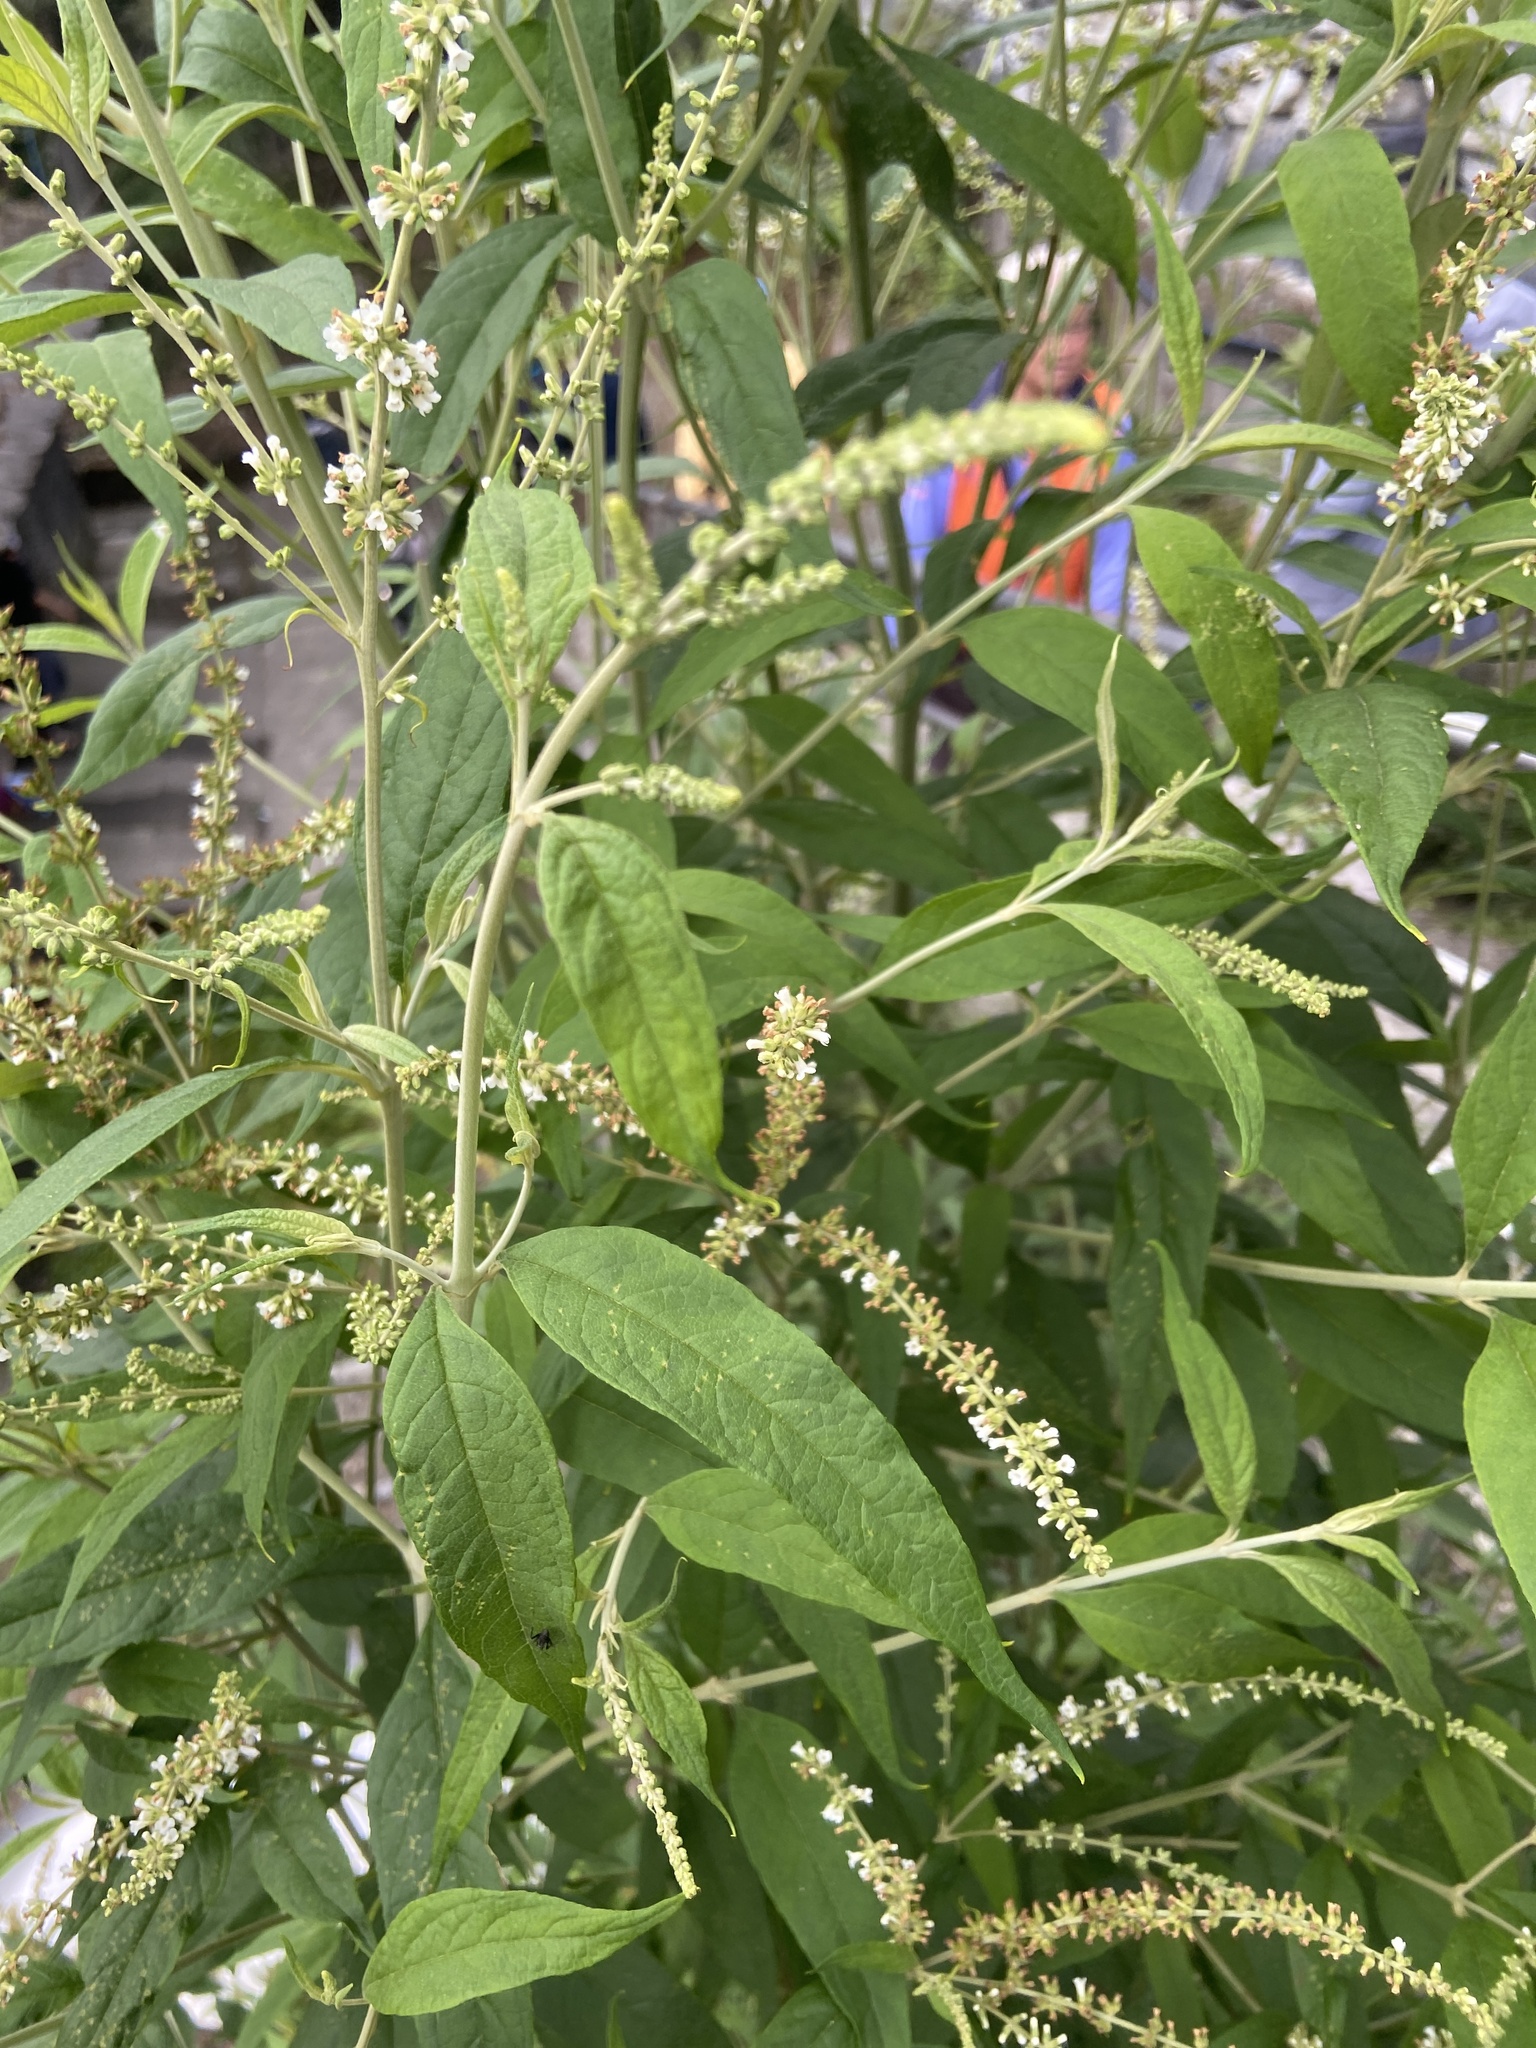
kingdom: Plantae
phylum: Tracheophyta
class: Magnoliopsida
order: Lamiales
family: Scrophulariaceae
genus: Buddleja
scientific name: Buddleja asiatica
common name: Dog tail
